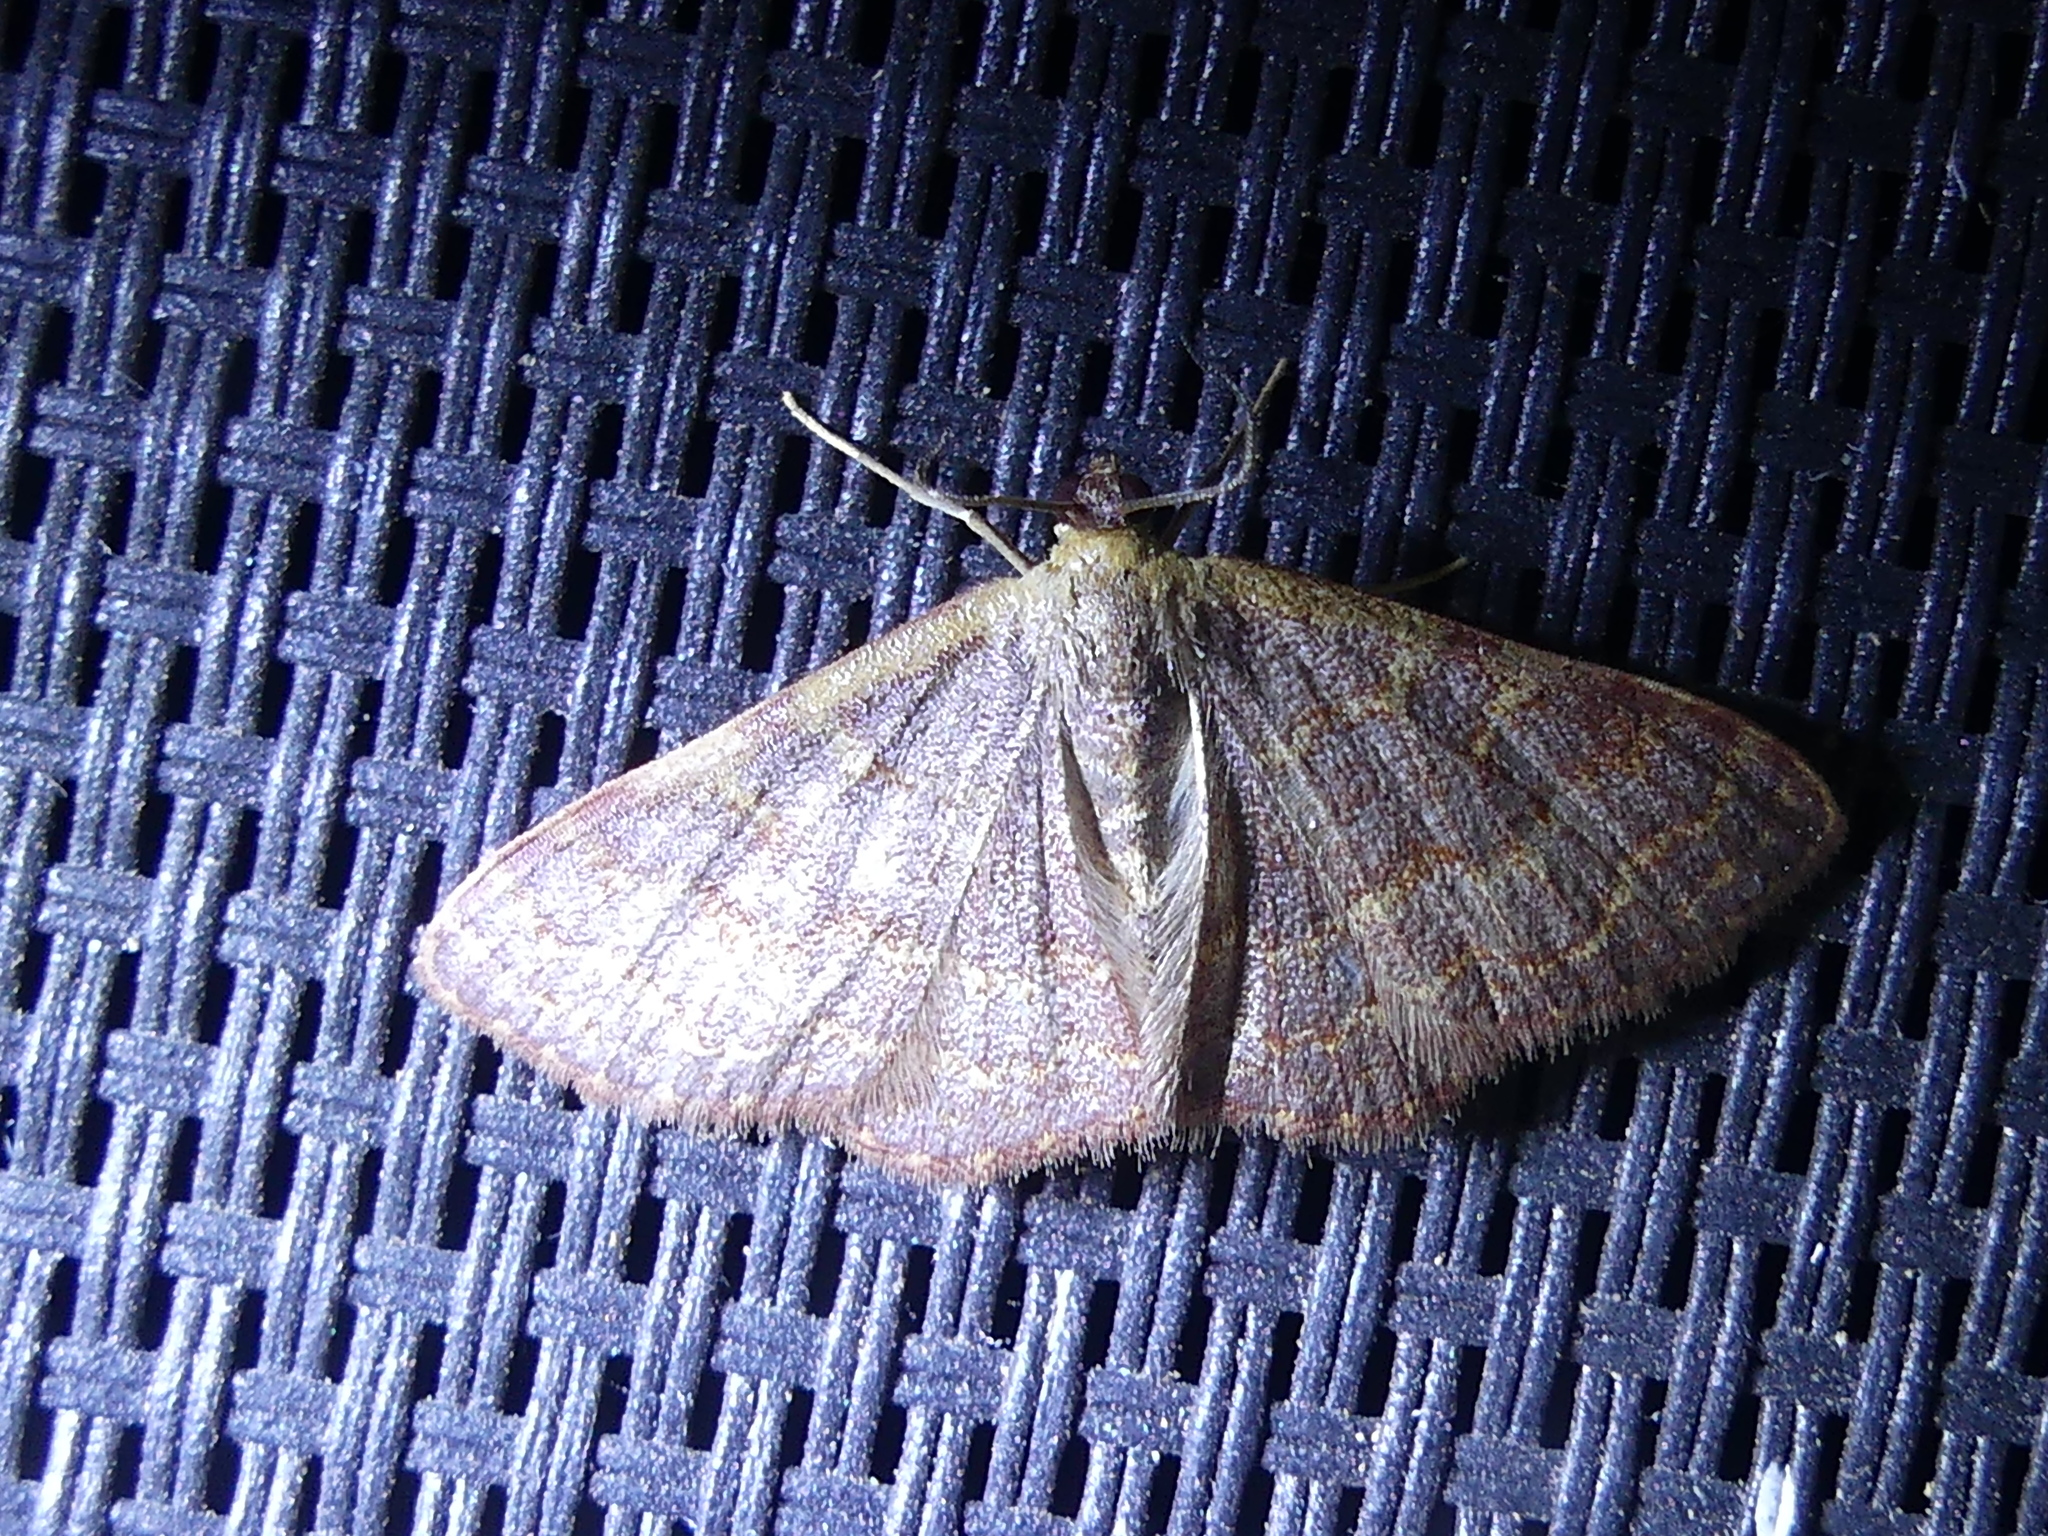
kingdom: Animalia
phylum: Arthropoda
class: Insecta
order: Lepidoptera
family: Geometridae
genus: Leptostales
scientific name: Leptostales pannaria
